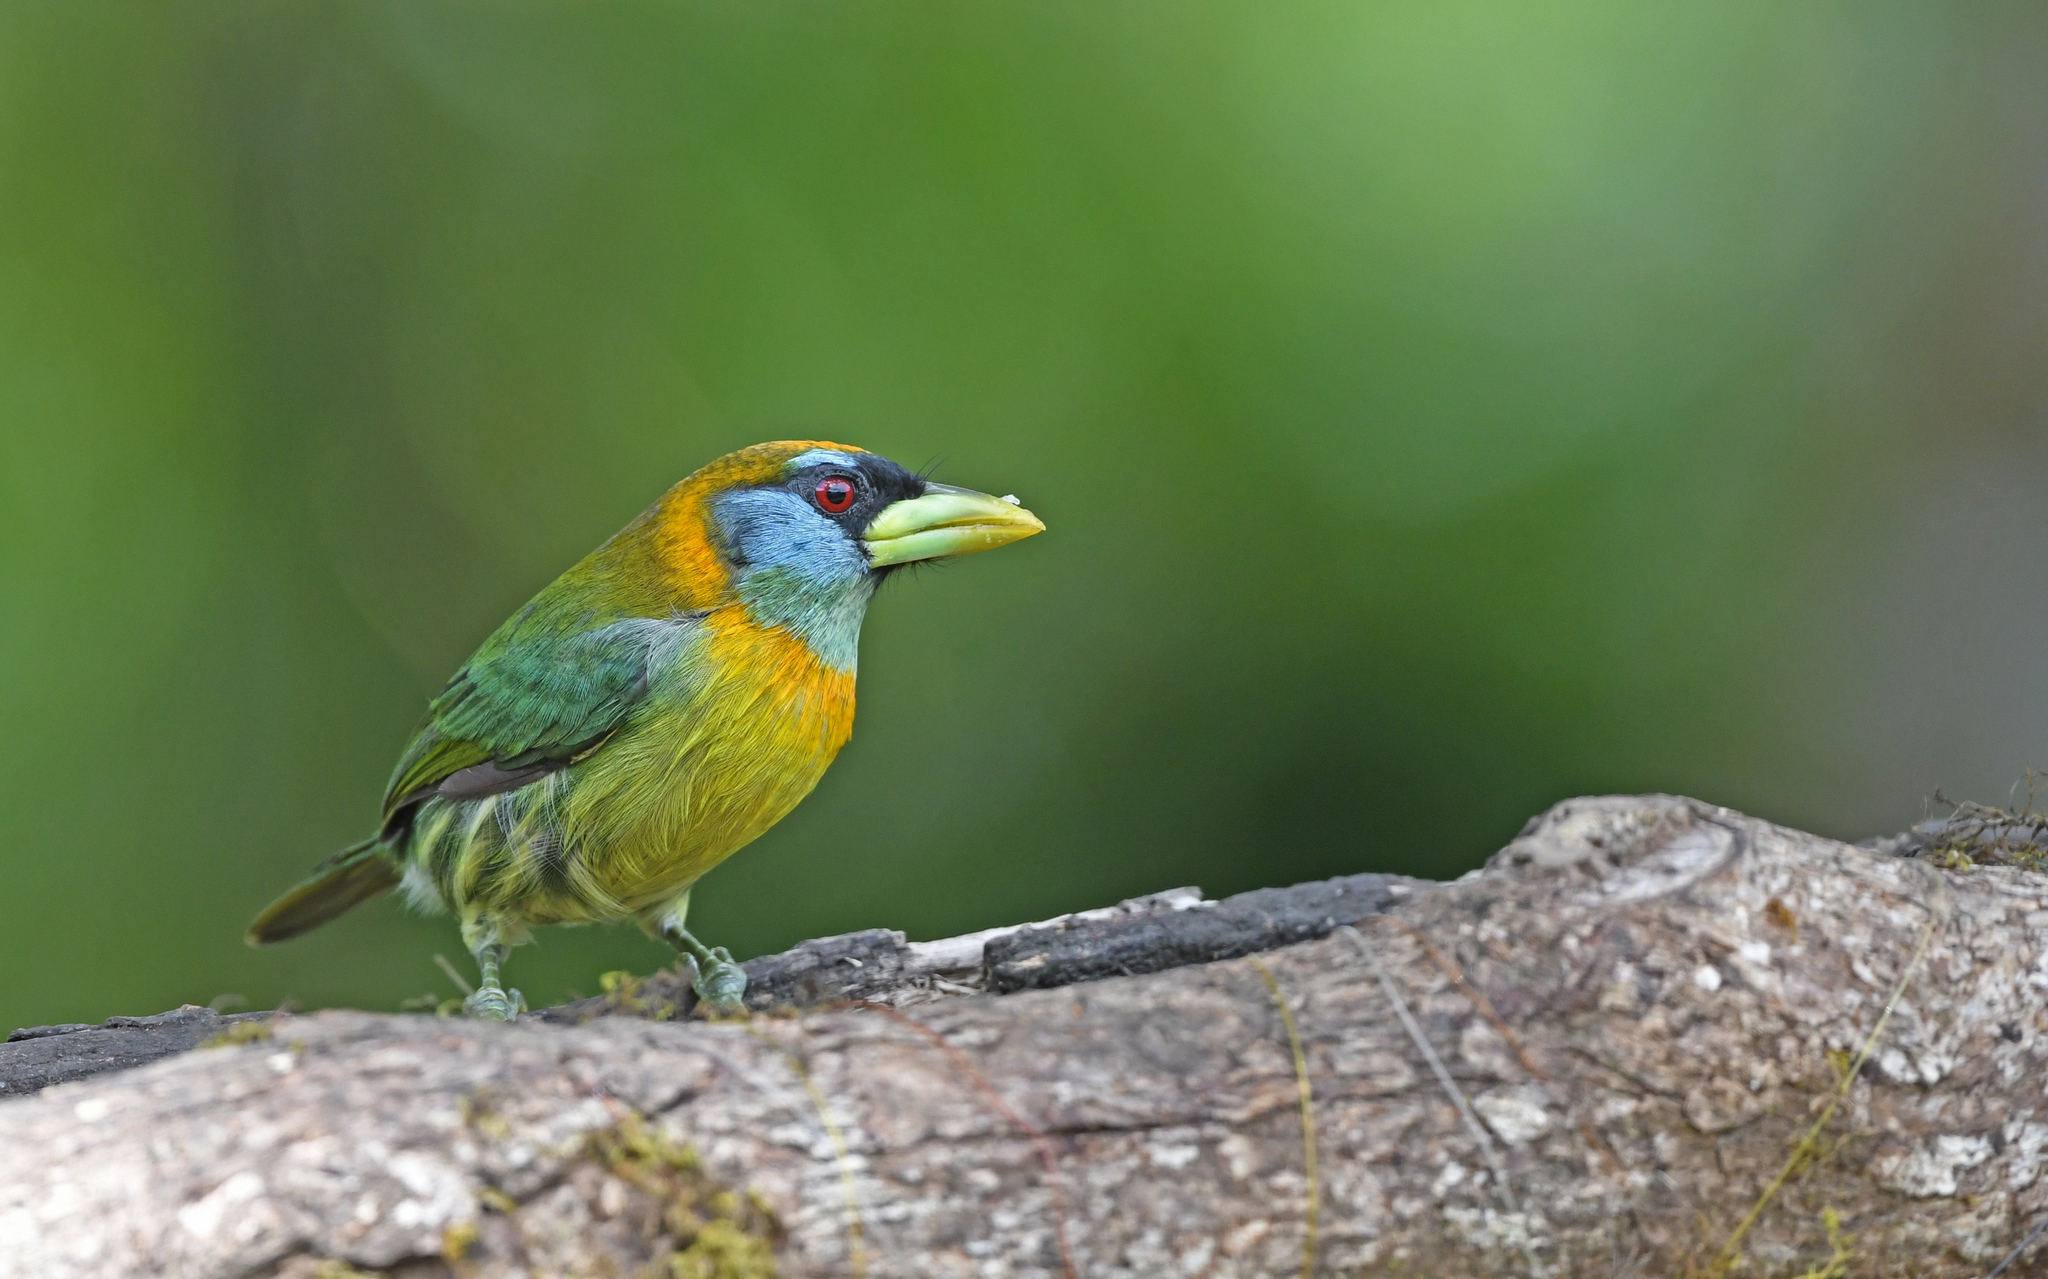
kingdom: Animalia
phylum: Chordata
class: Aves
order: Piciformes
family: Capitonidae
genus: Eubucco
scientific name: Eubucco bourcierii
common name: Red-headed barbet
